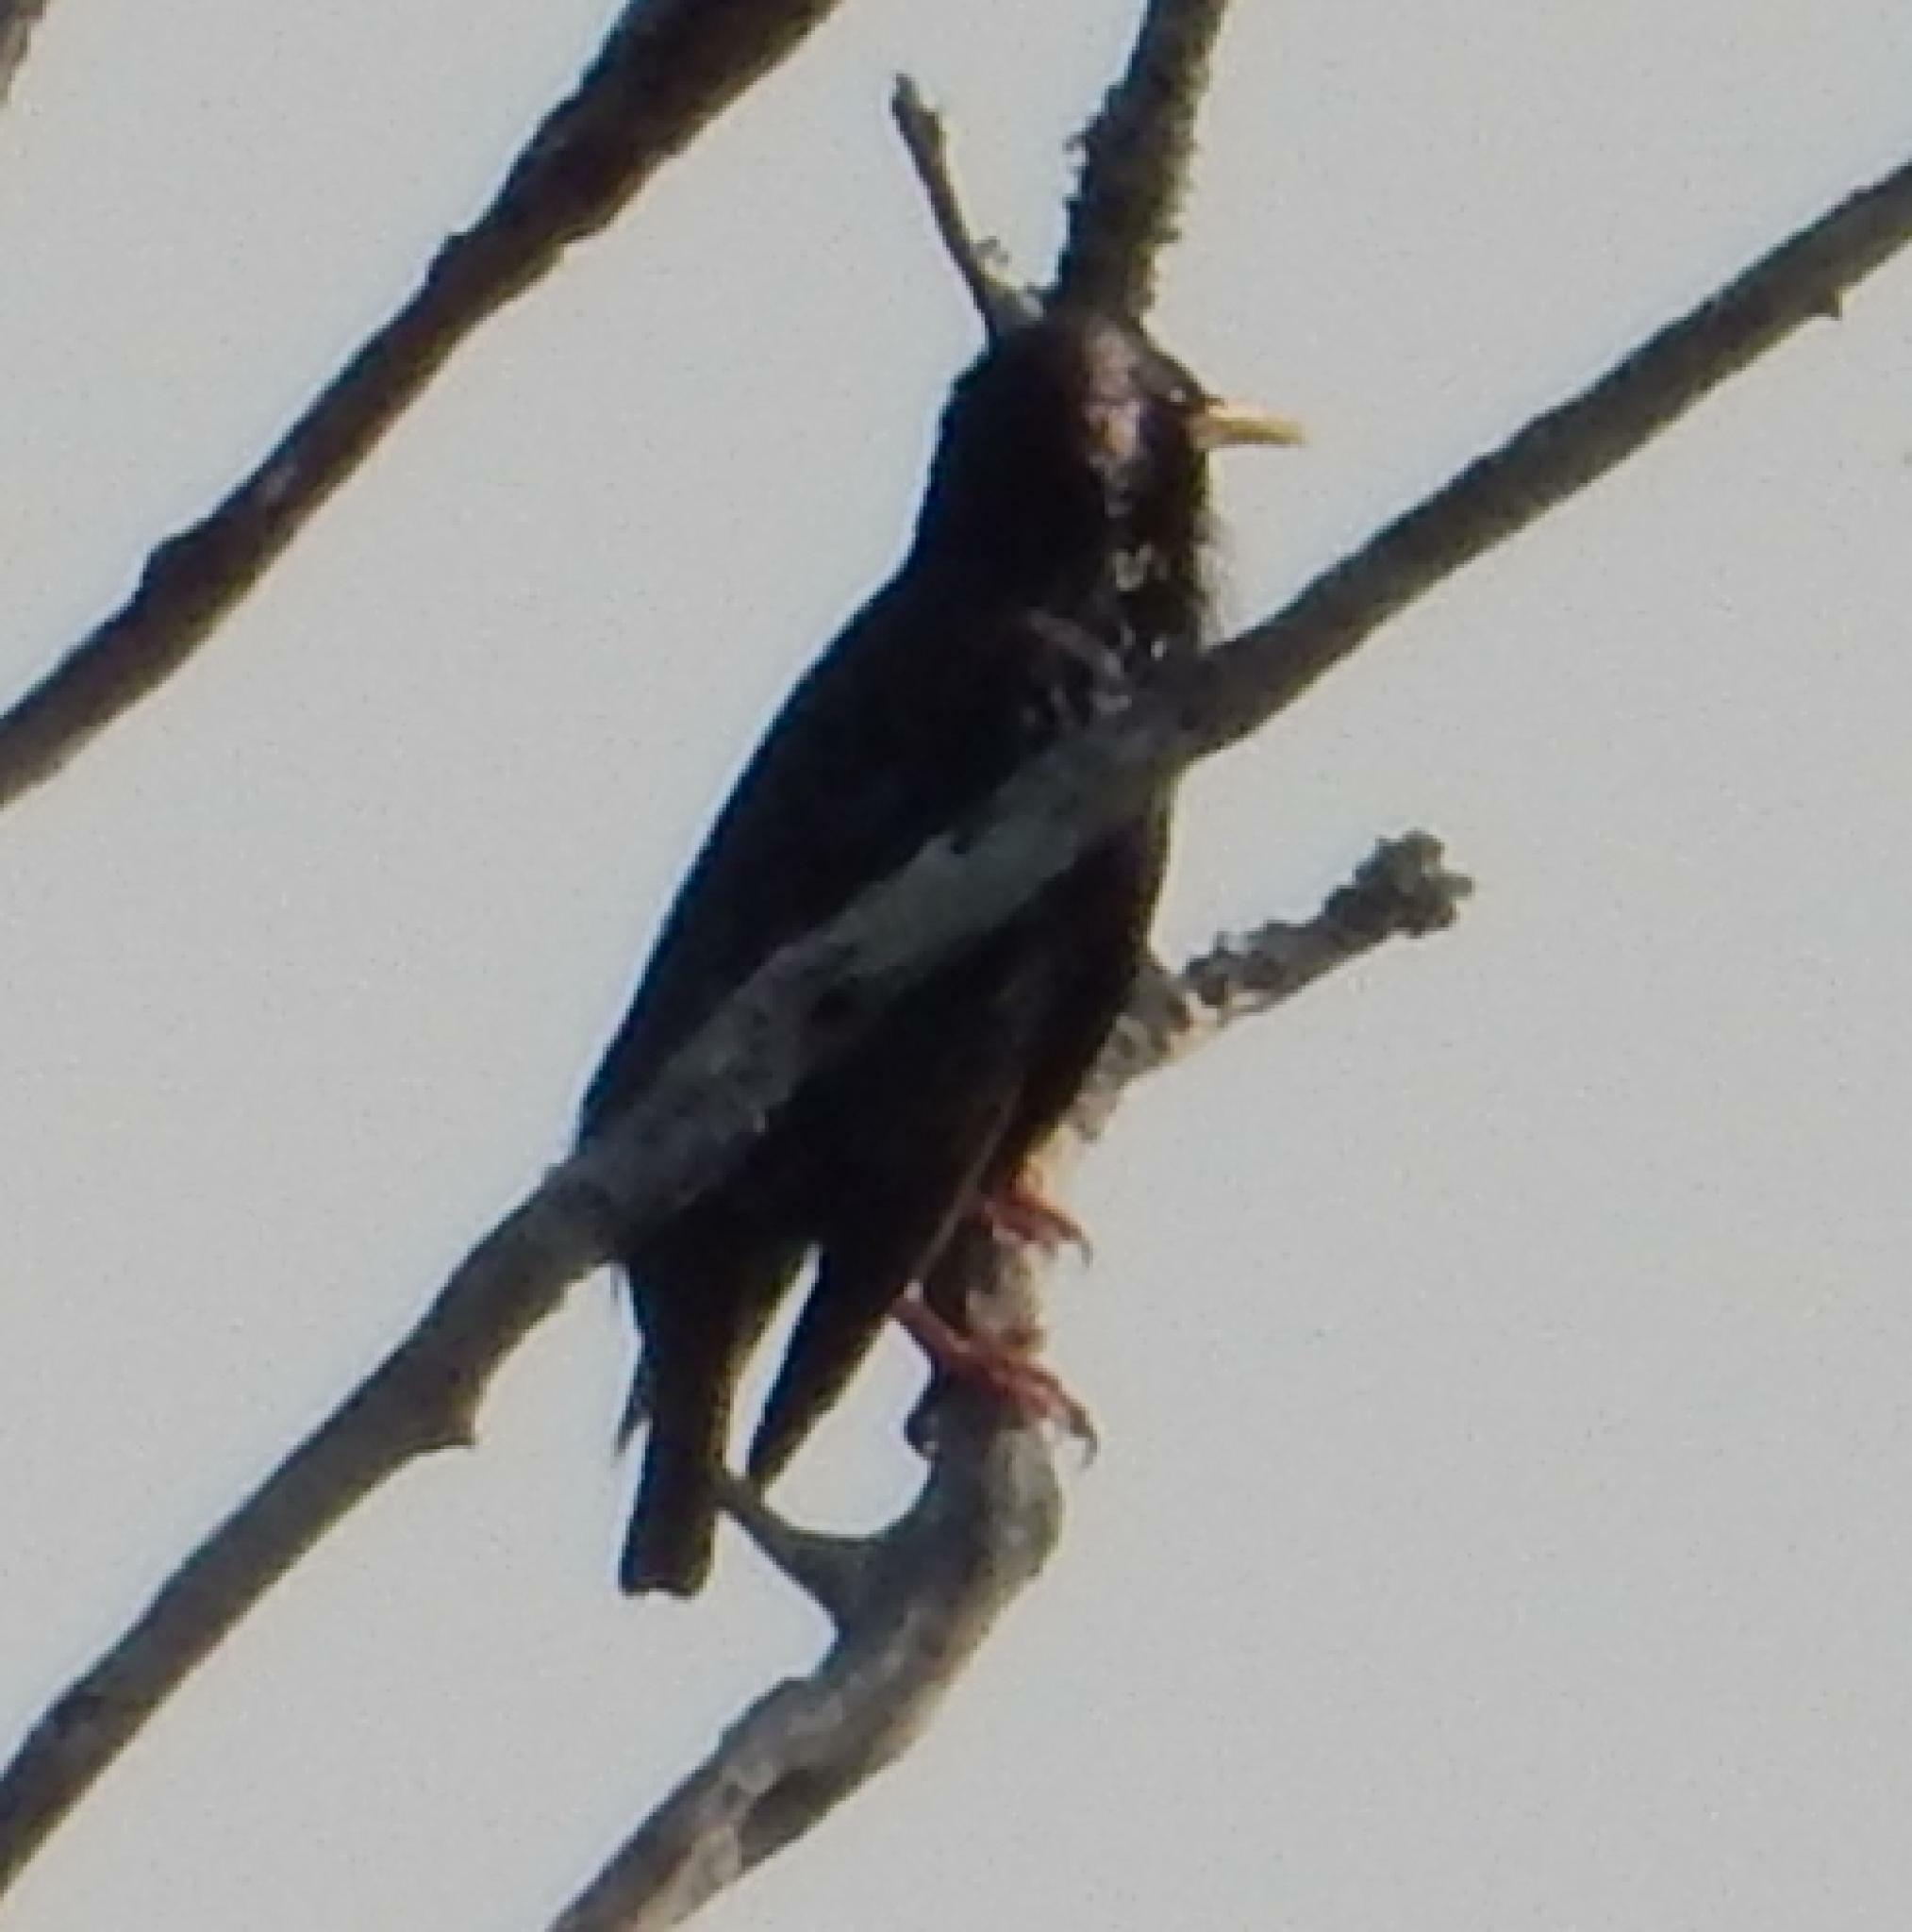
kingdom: Animalia
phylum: Chordata
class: Aves
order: Passeriformes
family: Sturnidae
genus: Sturnus
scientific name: Sturnus vulgaris
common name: Common starling
